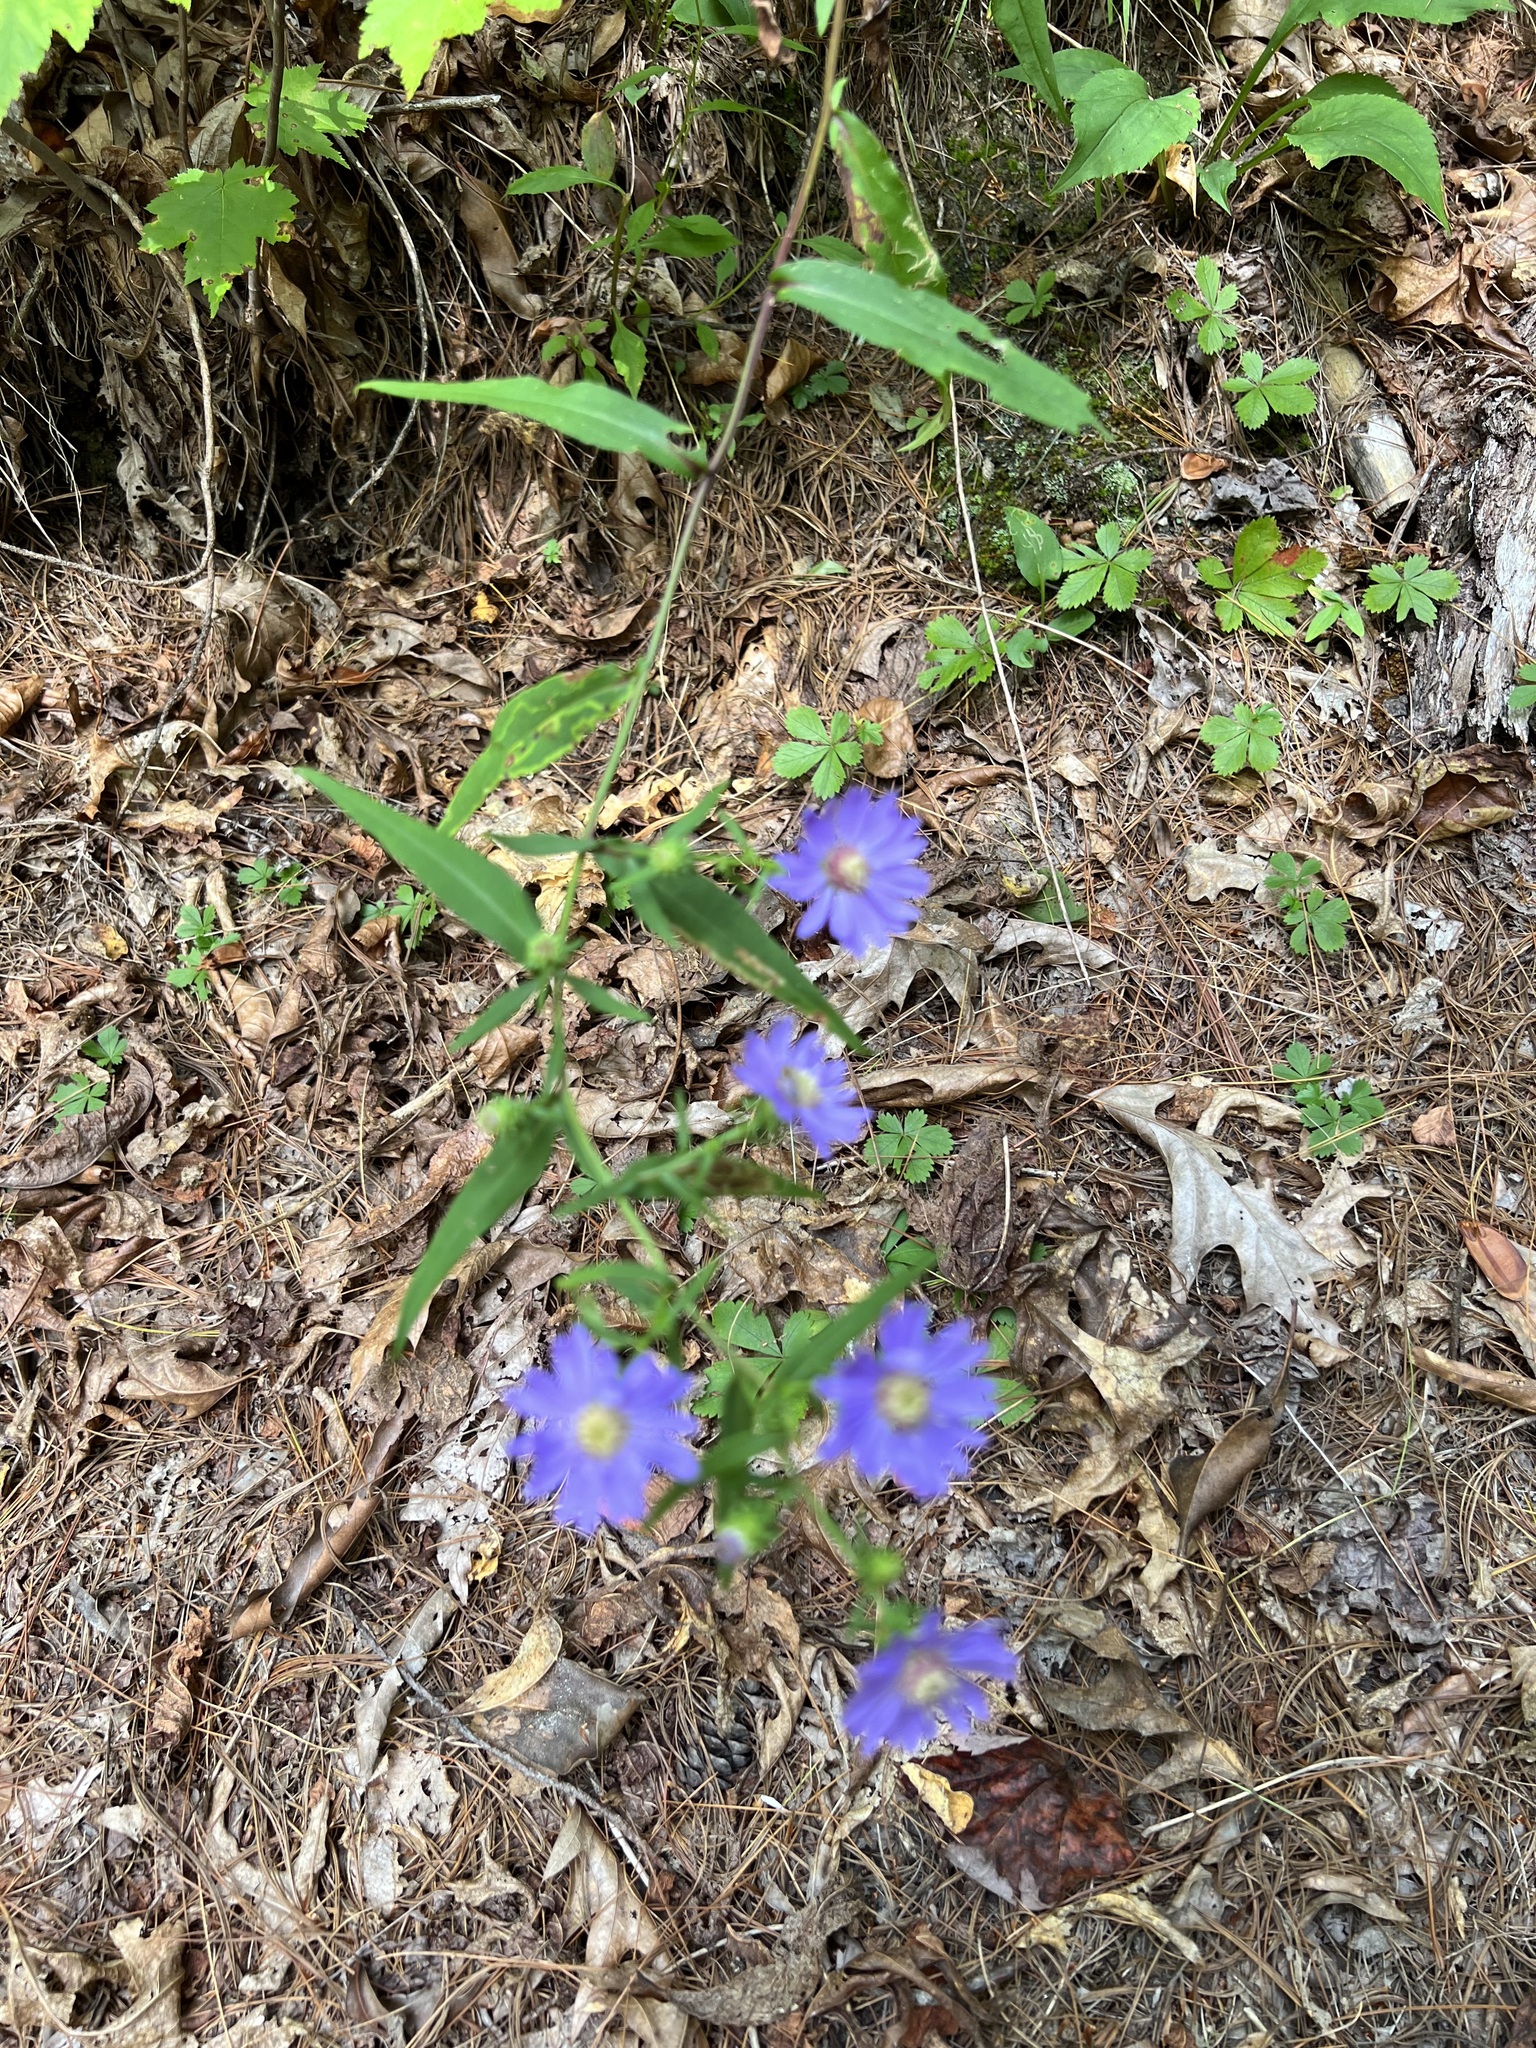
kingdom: Plantae
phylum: Tracheophyta
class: Magnoliopsida
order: Asterales
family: Asteraceae
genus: Symphyotrichum
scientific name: Symphyotrichum retroflexum
